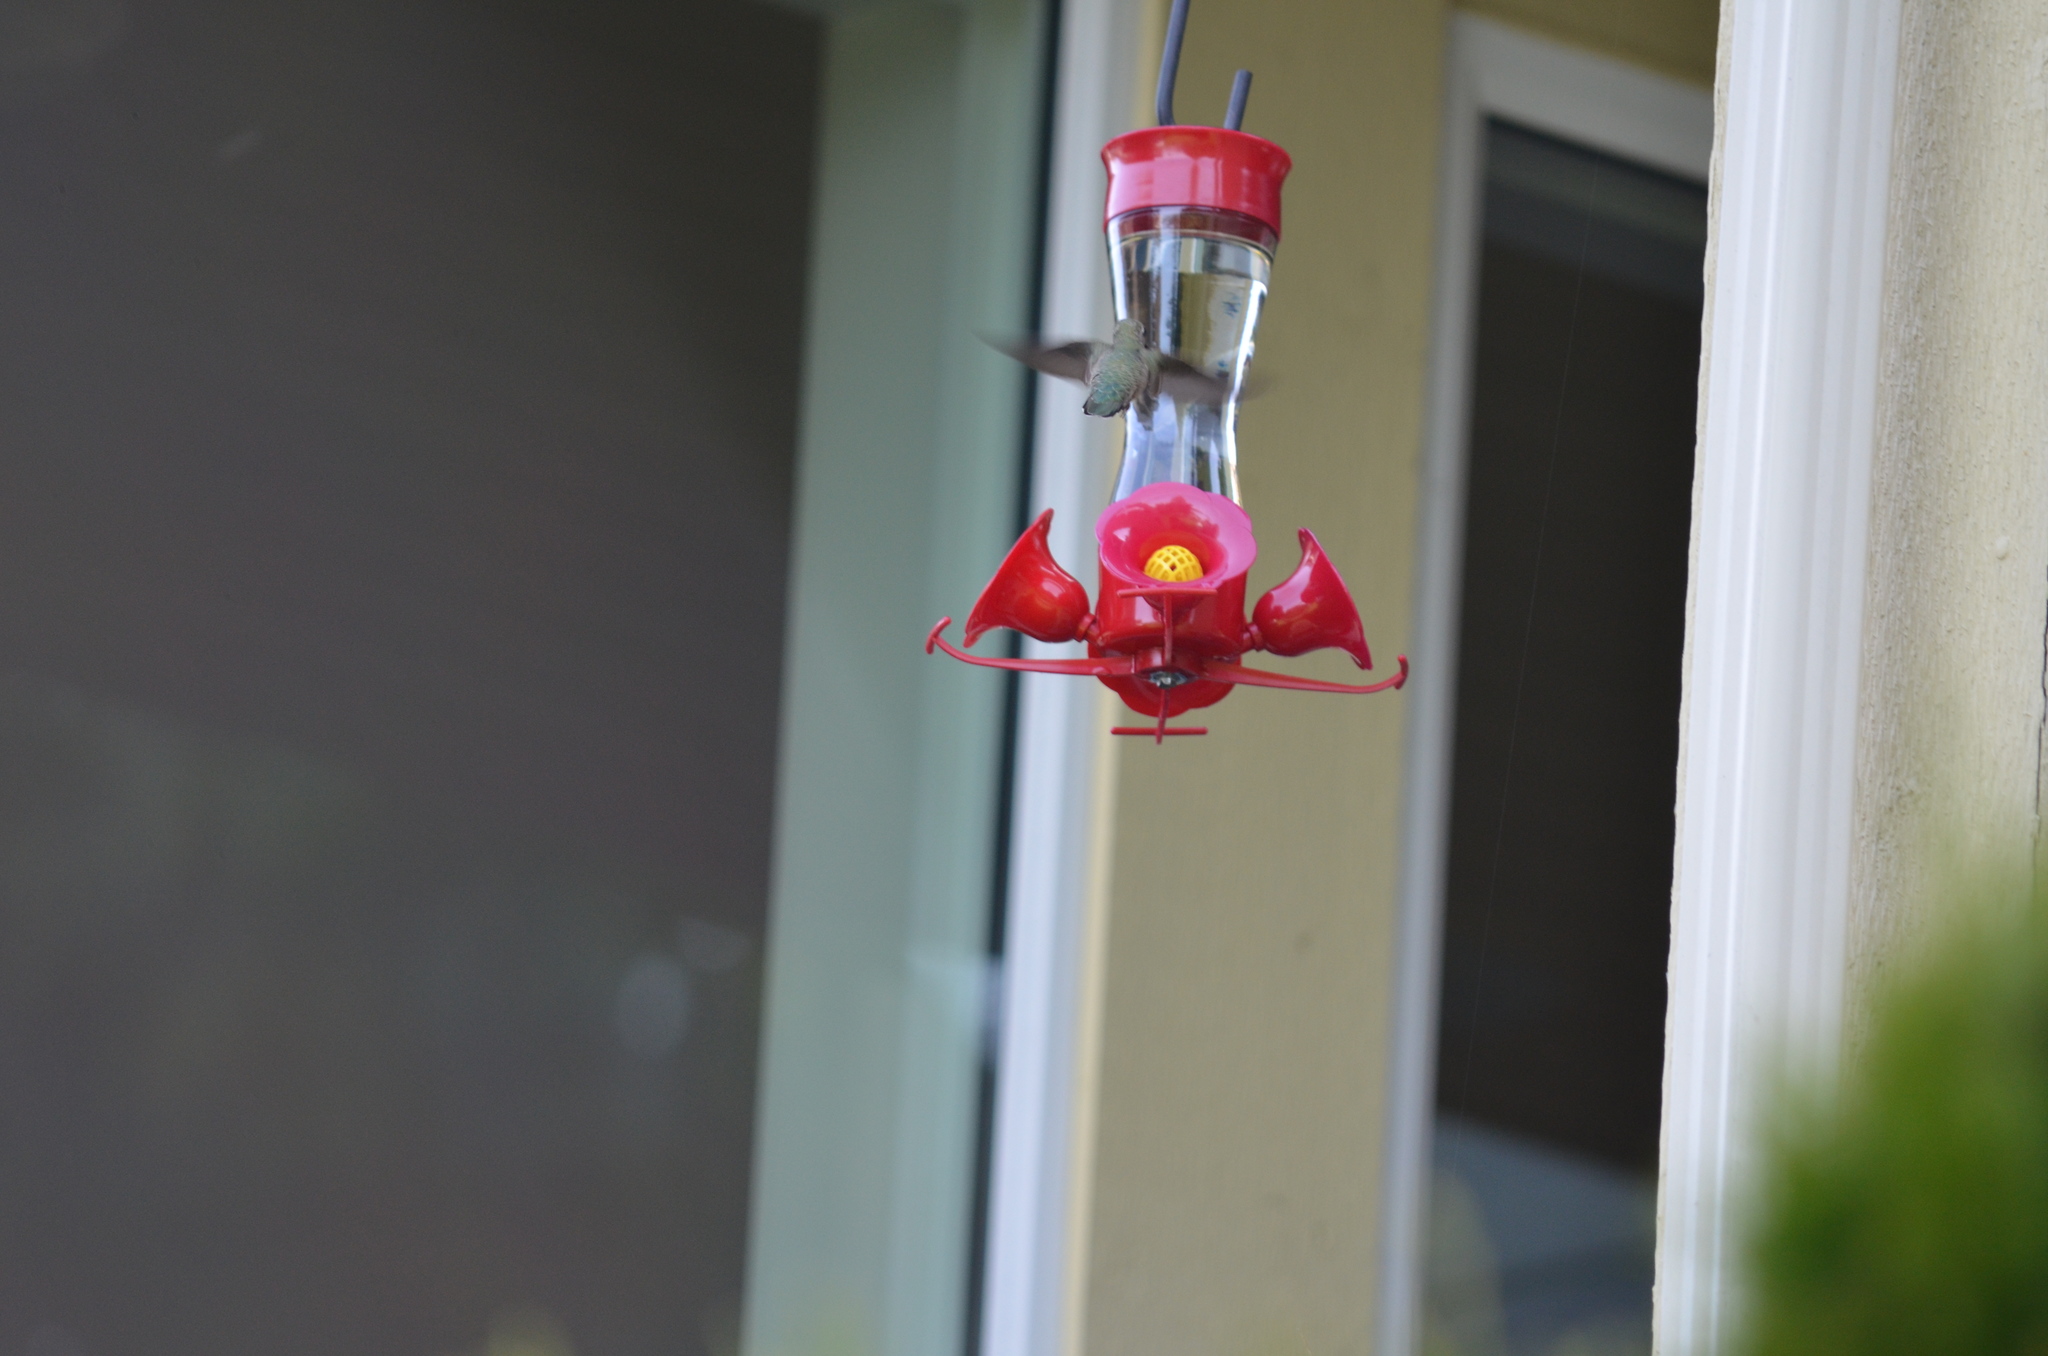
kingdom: Animalia
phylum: Chordata
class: Aves
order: Apodiformes
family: Trochilidae
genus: Calypte
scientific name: Calypte anna
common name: Anna's hummingbird
